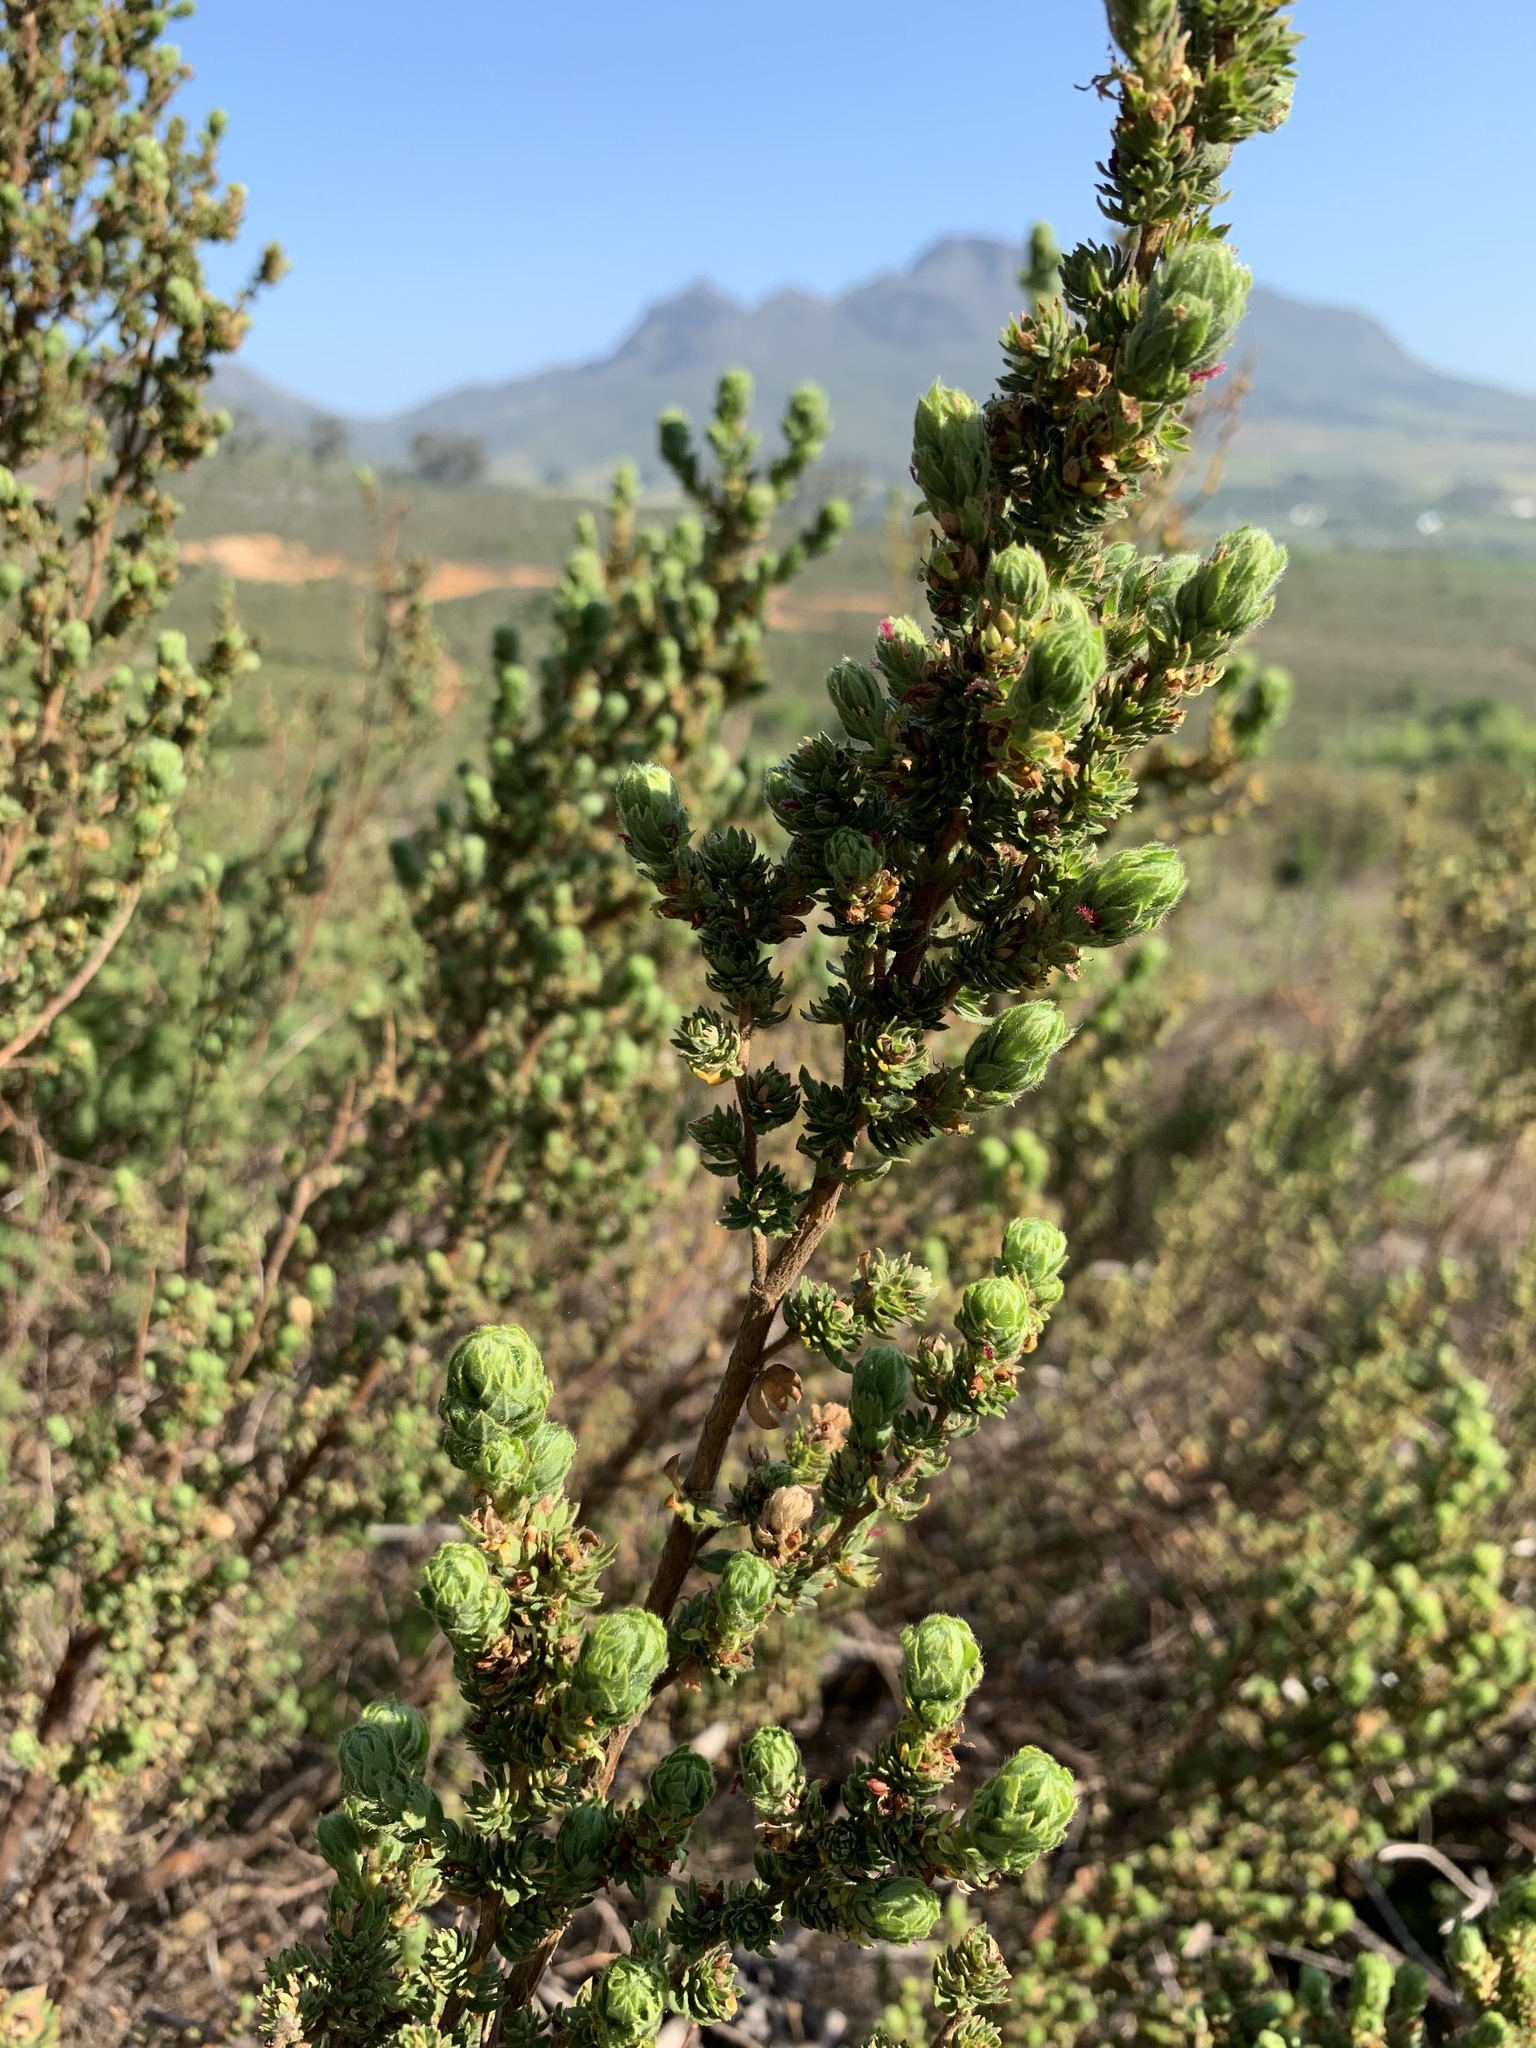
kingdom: Plantae
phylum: Tracheophyta
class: Magnoliopsida
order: Rosales
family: Rosaceae
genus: Cliffortia
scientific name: Cliffortia polygonifolia
